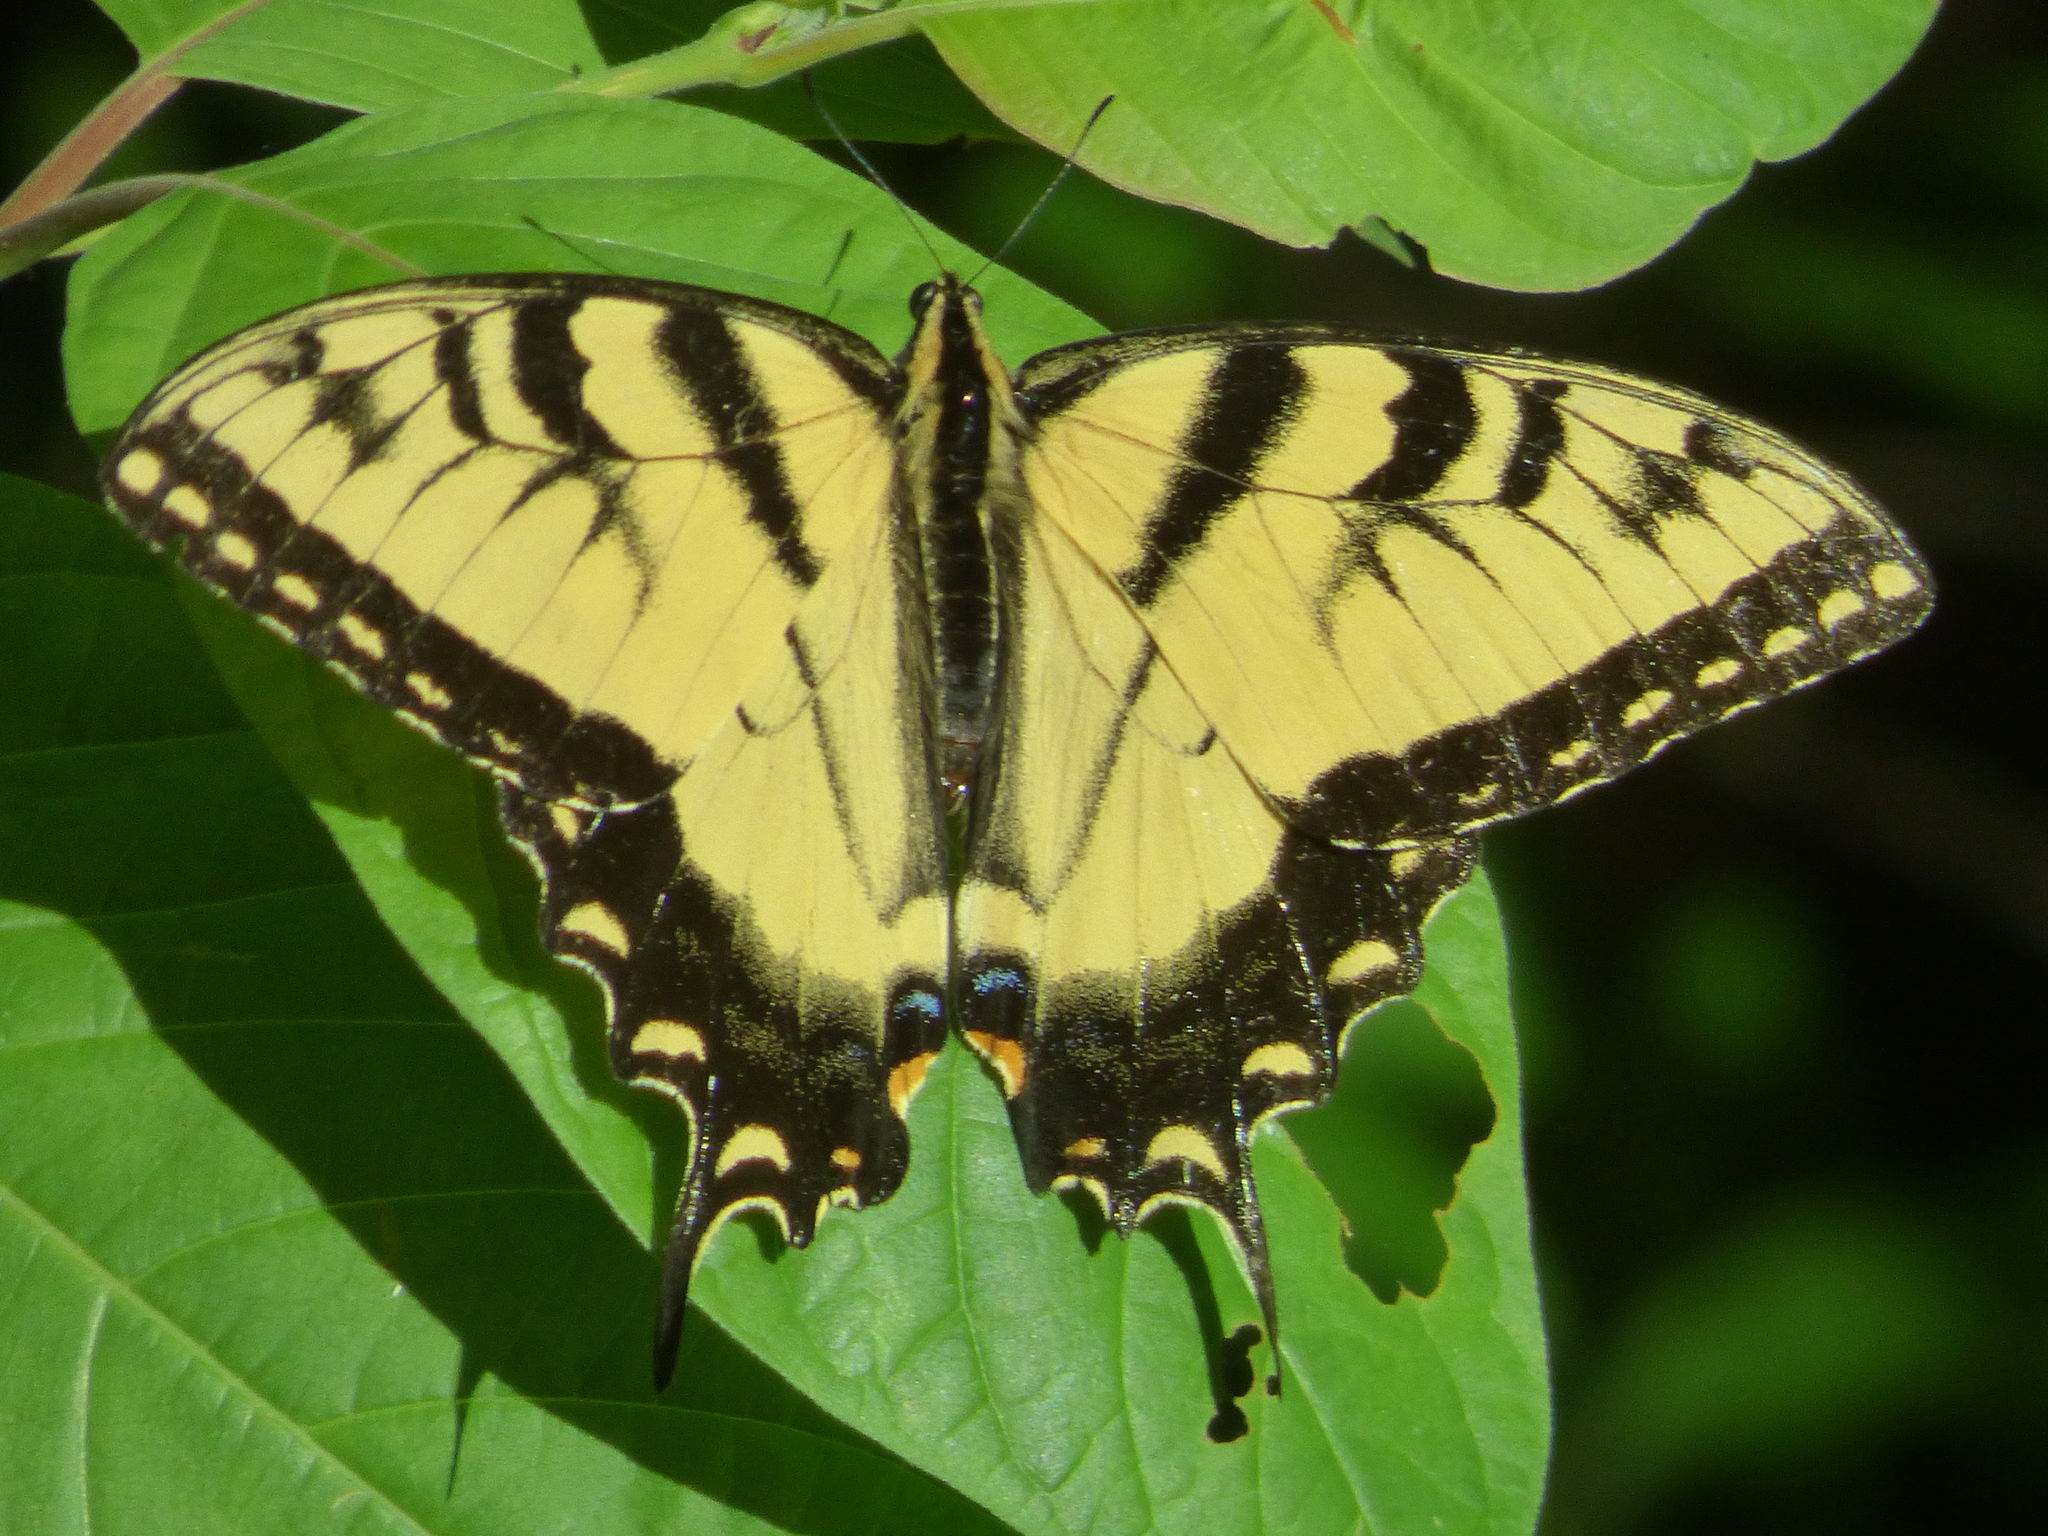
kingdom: Animalia
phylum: Arthropoda
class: Insecta
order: Lepidoptera
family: Papilionidae
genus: Papilio
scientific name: Papilio glaucus
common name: Tiger swallowtail
